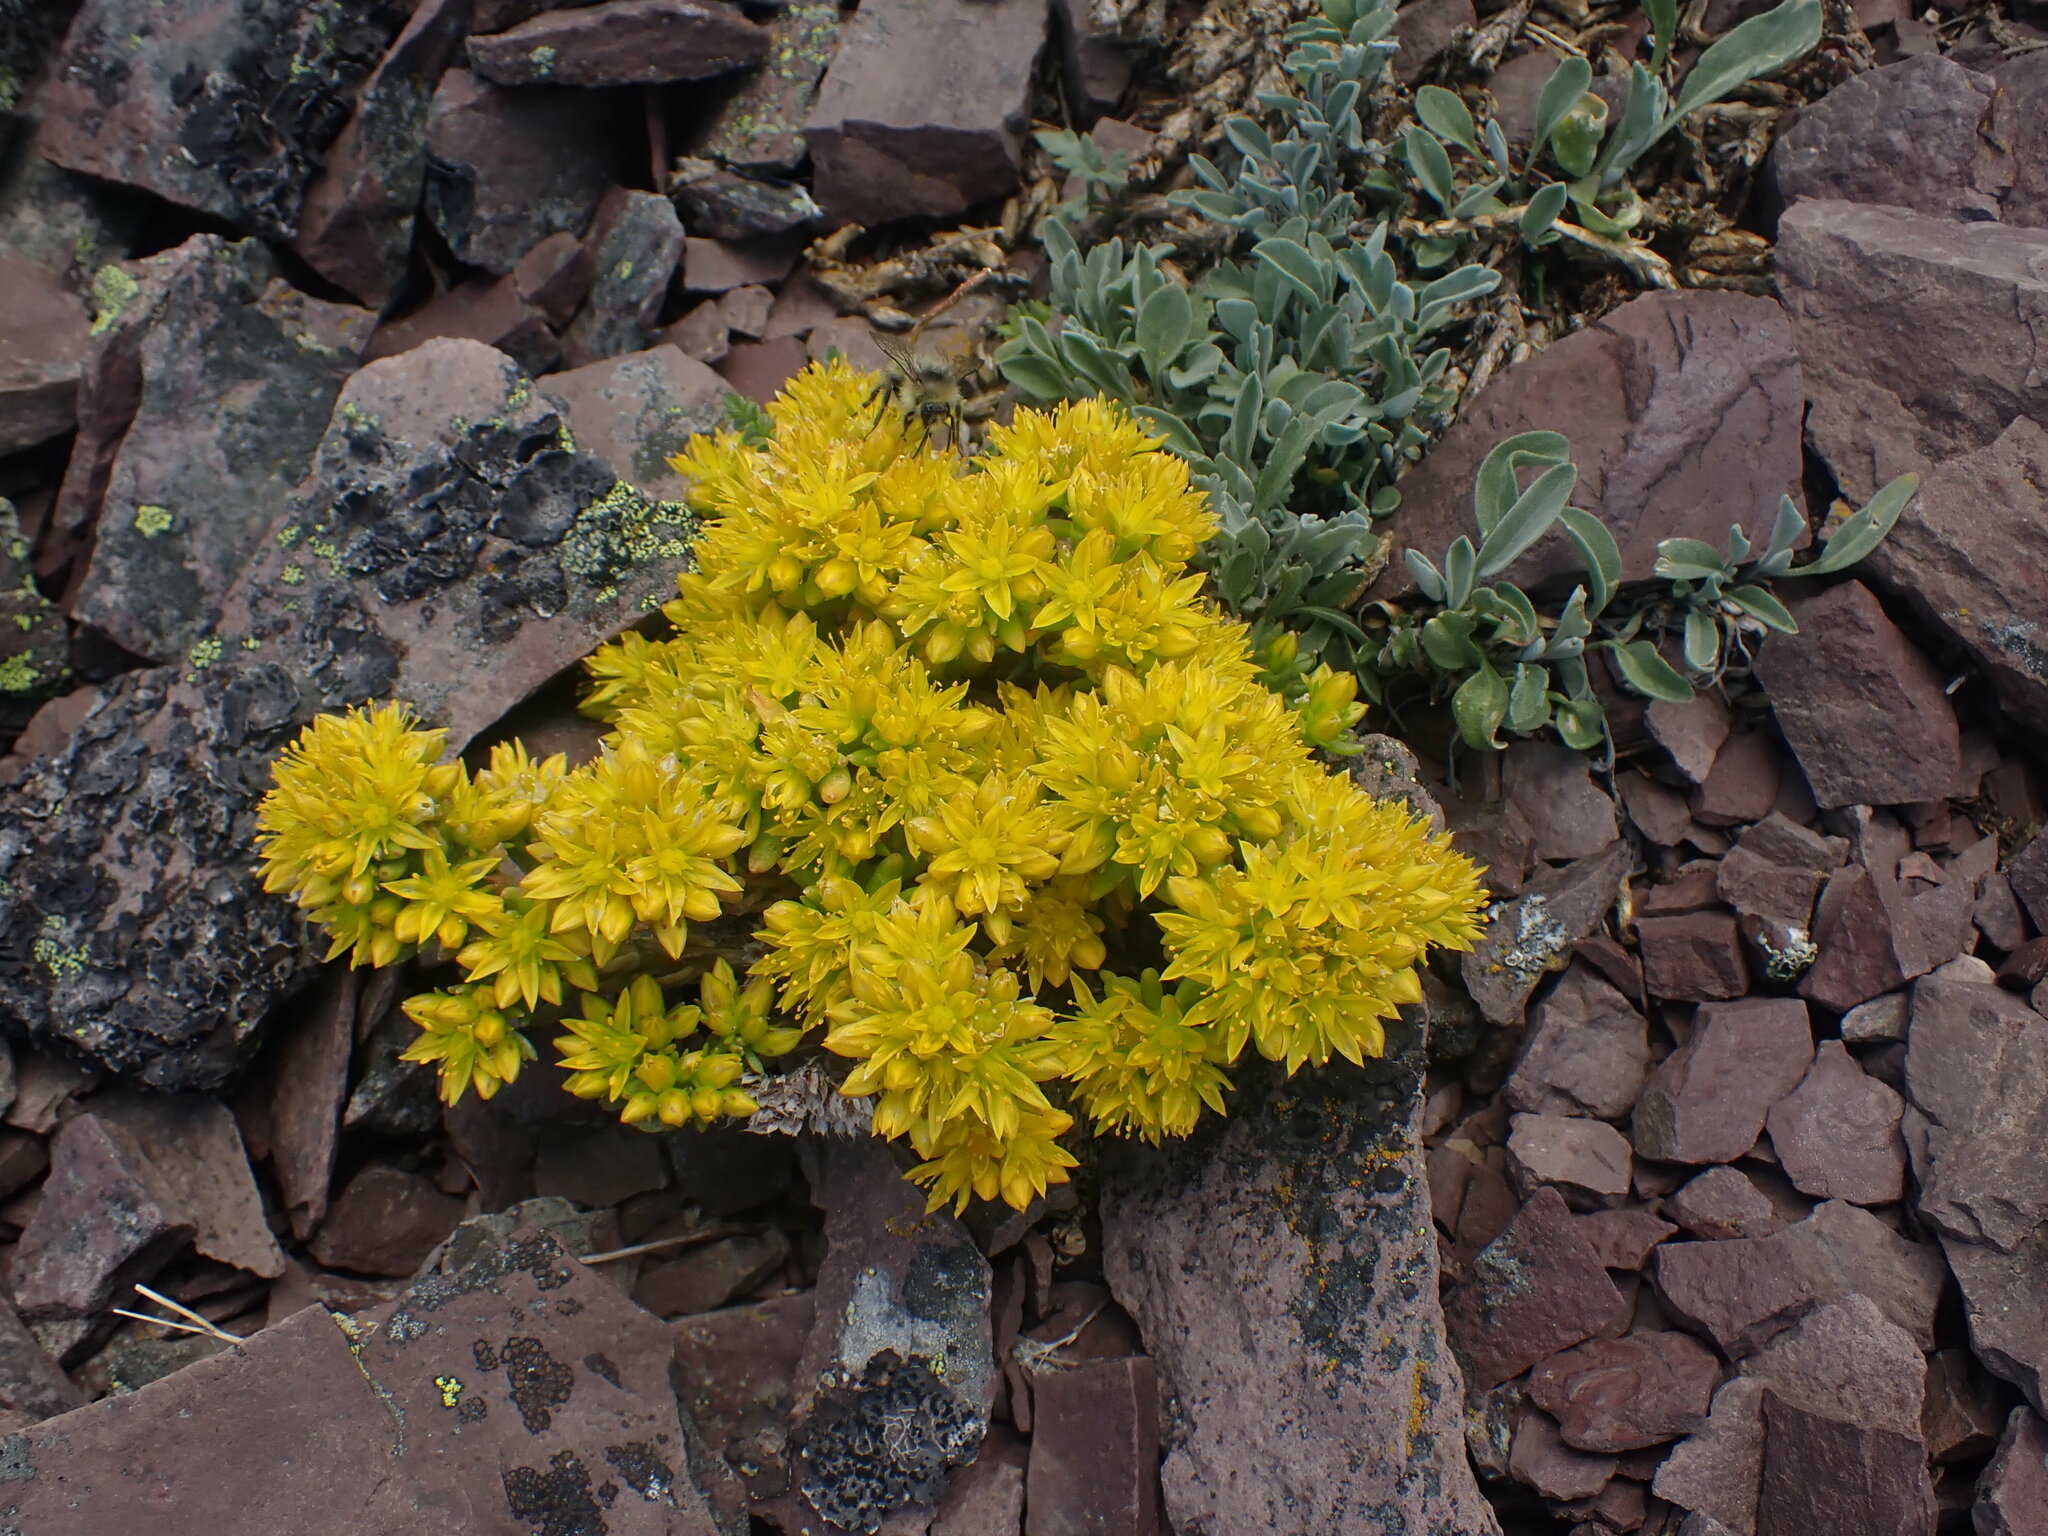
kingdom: Plantae
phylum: Tracheophyta
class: Magnoliopsida
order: Saxifragales
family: Crassulaceae
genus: Sedum
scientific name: Sedum lanceolatum
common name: Common stonecrop
